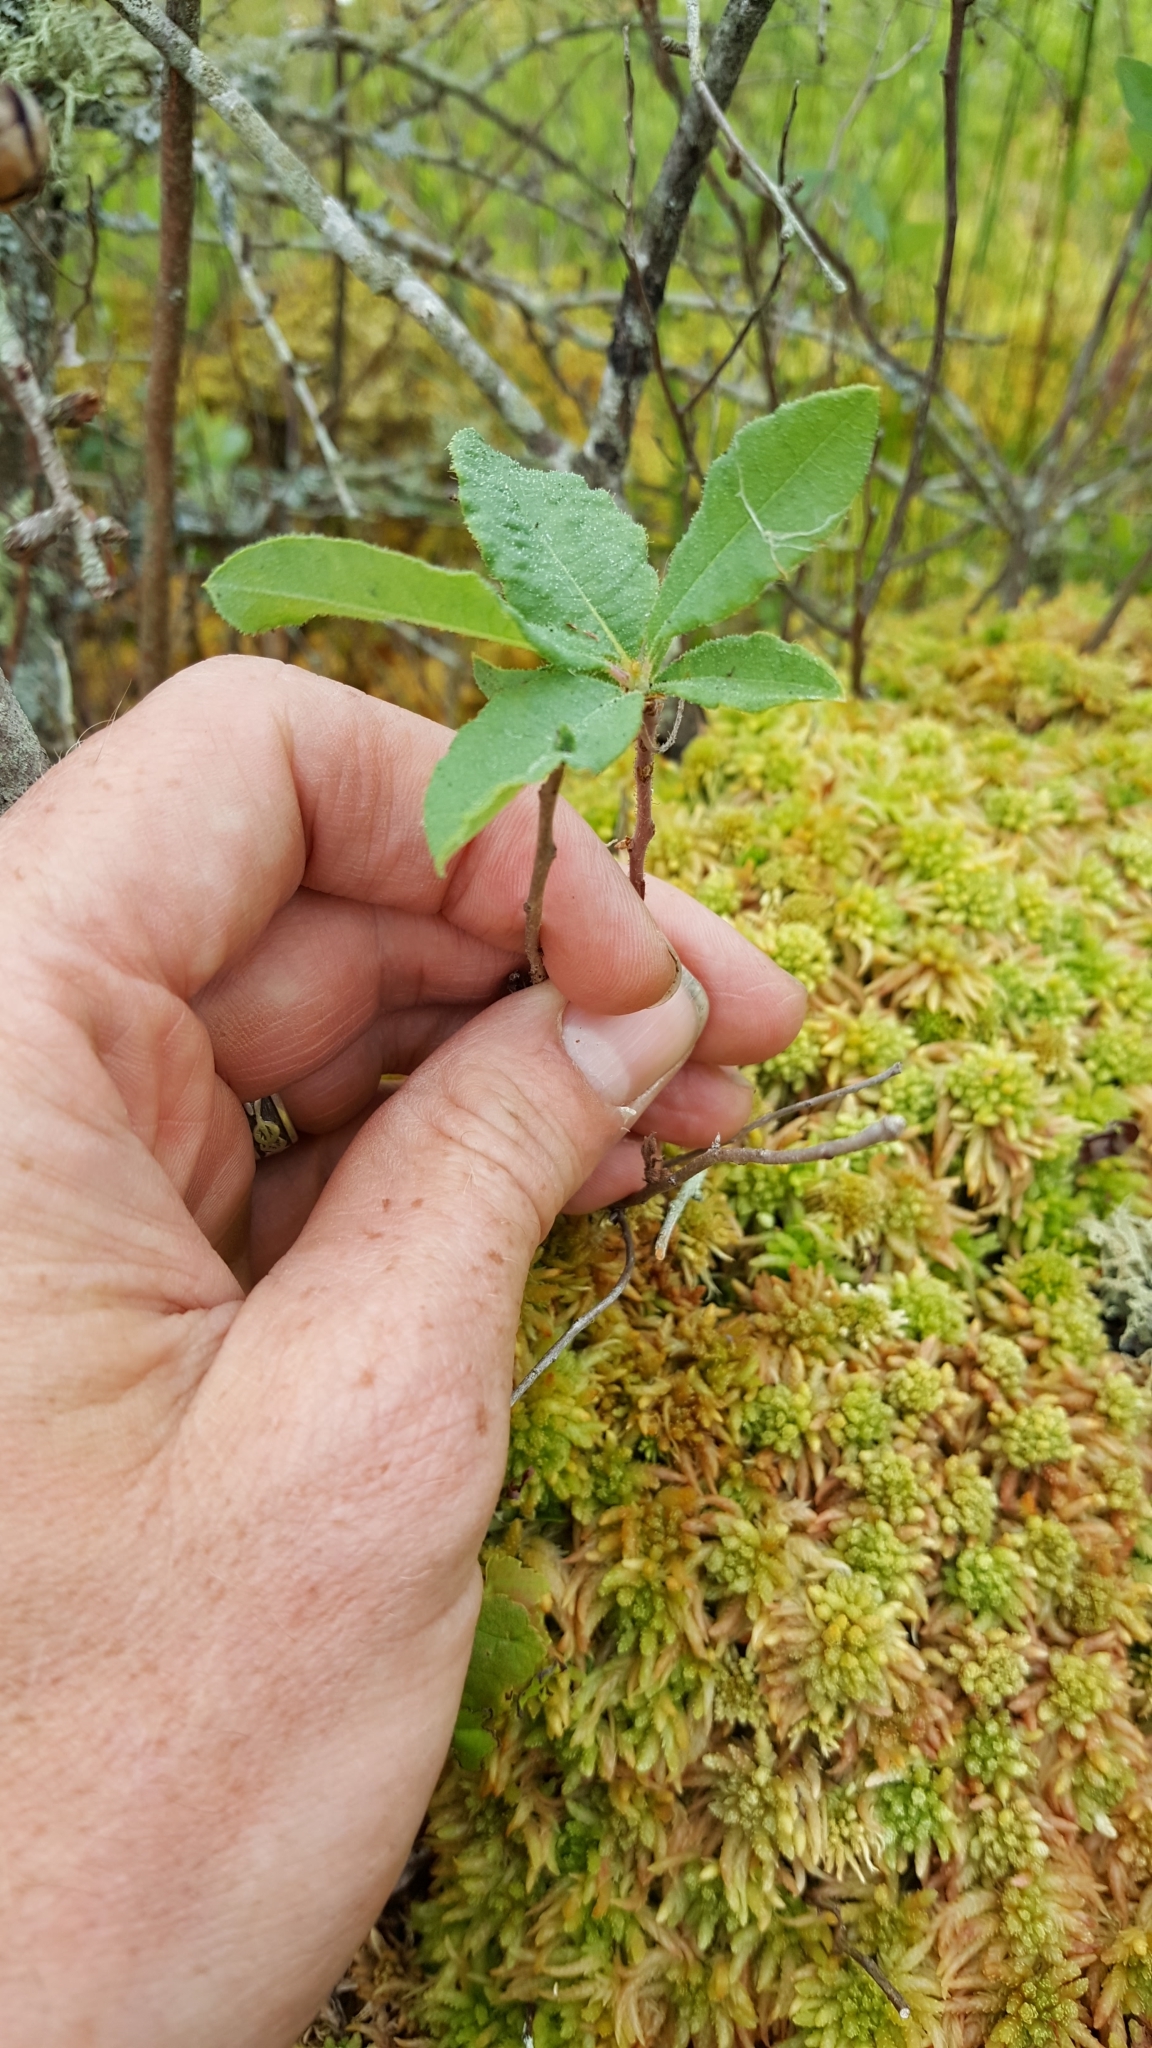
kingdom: Plantae
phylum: Tracheophyta
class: Magnoliopsida
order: Ericales
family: Ericaceae
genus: Rhododendron
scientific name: Rhododendron canadense
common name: Rhodora
